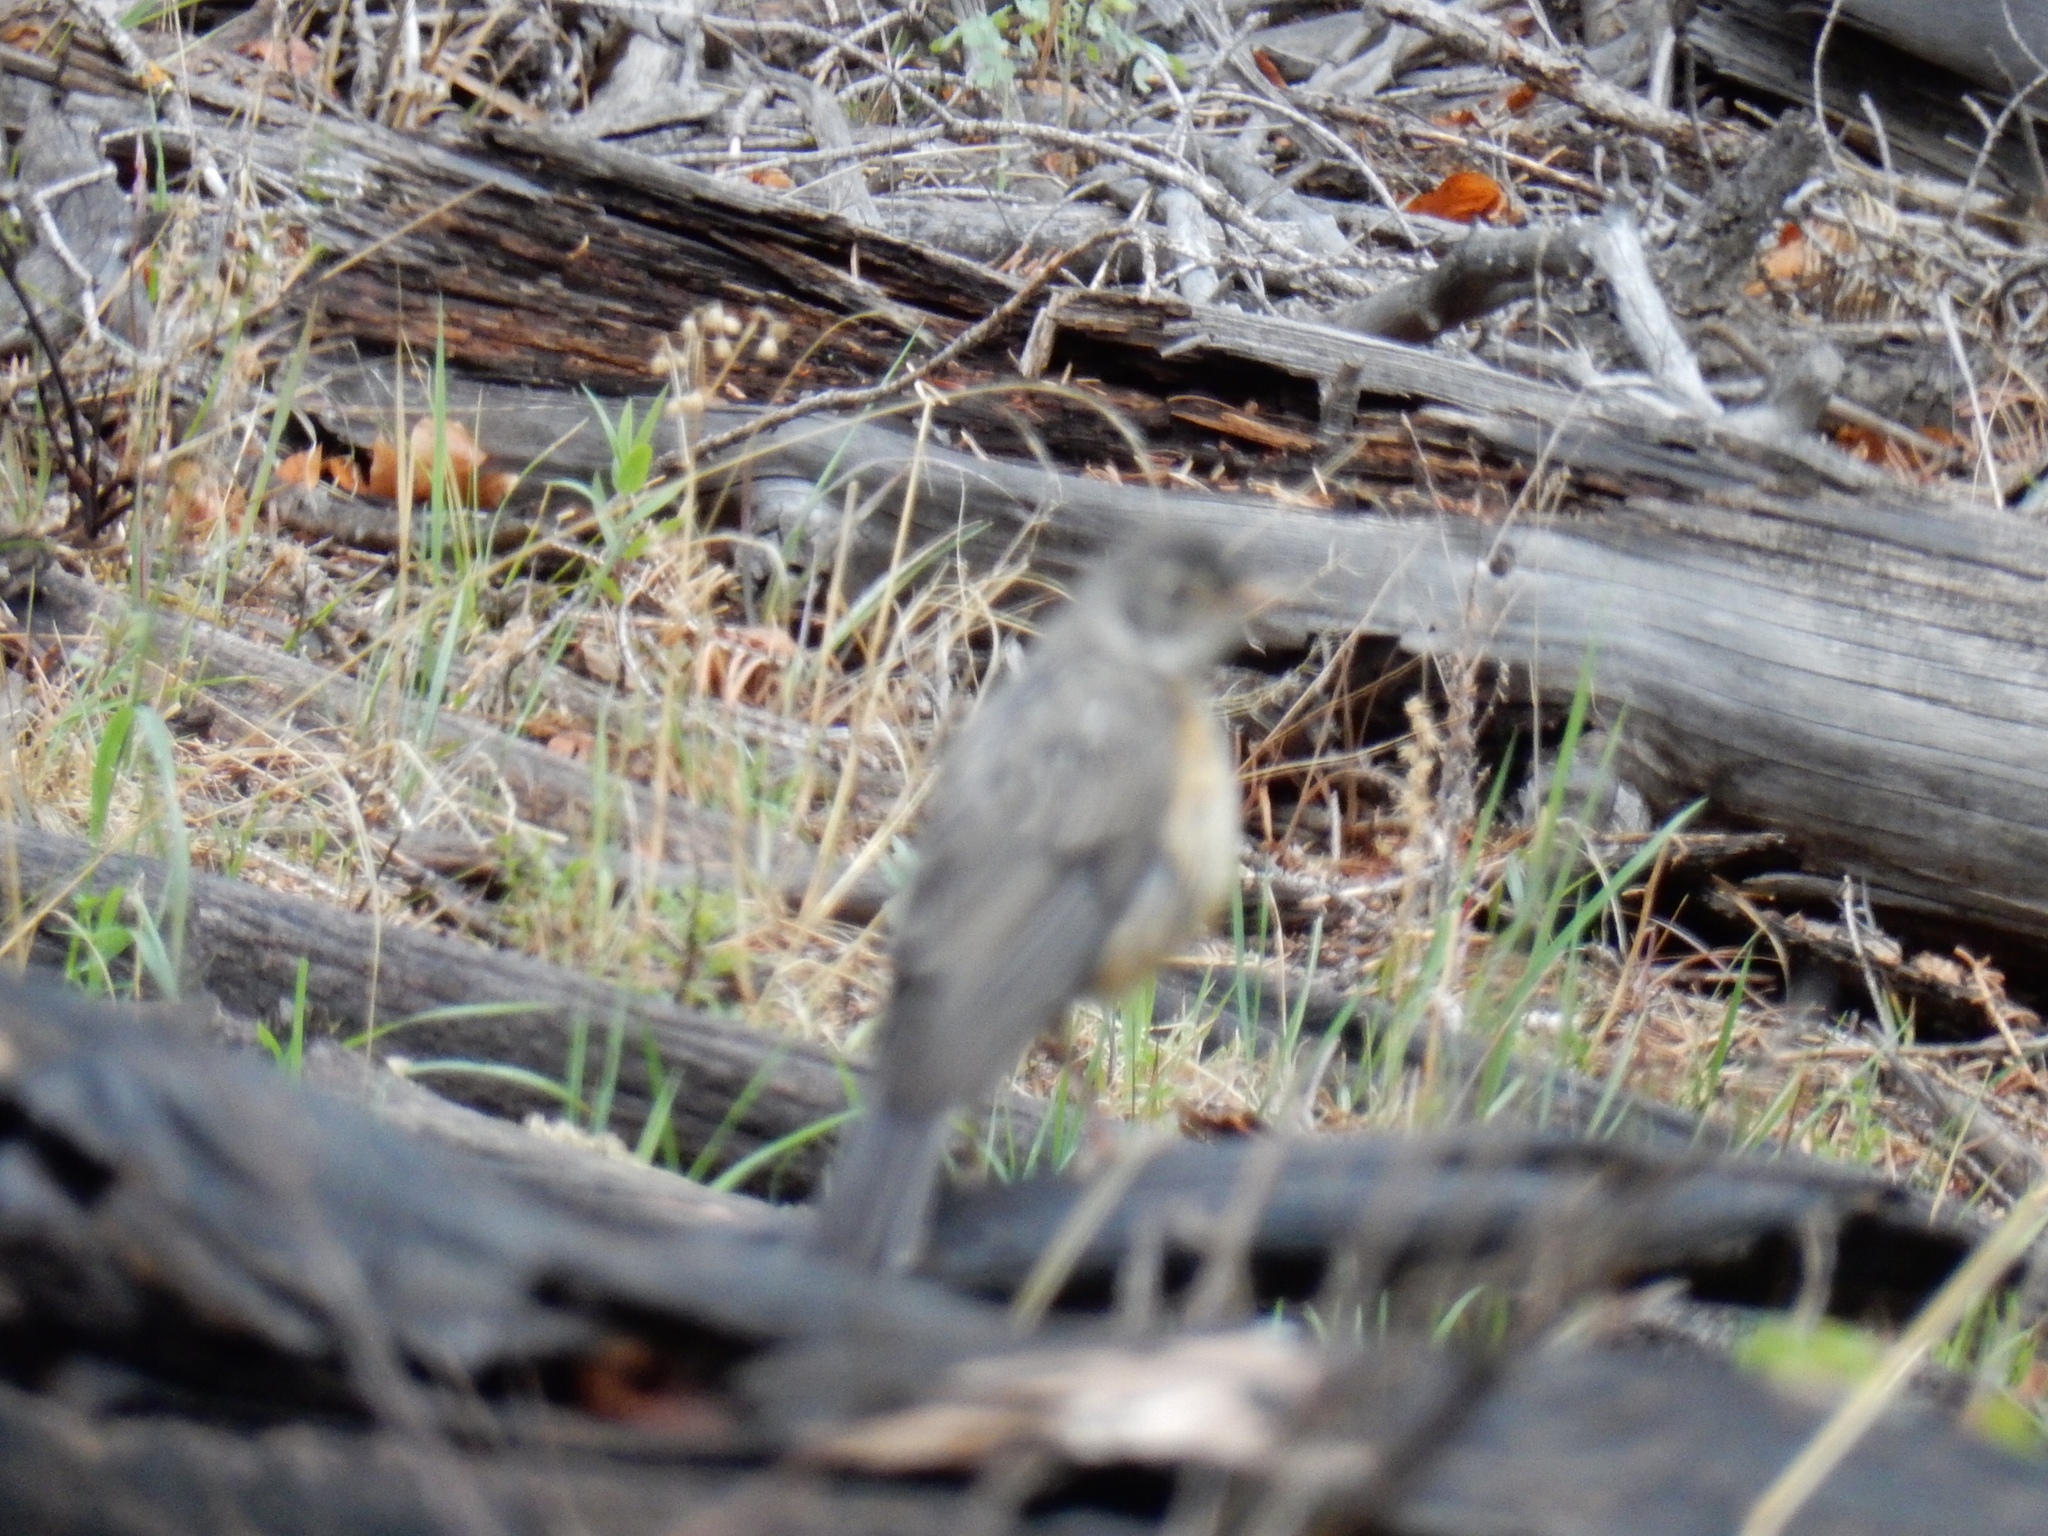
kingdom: Animalia
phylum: Chordata
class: Aves
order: Passeriformes
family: Turdidae
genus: Turdus
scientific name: Turdus migratorius
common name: American robin
